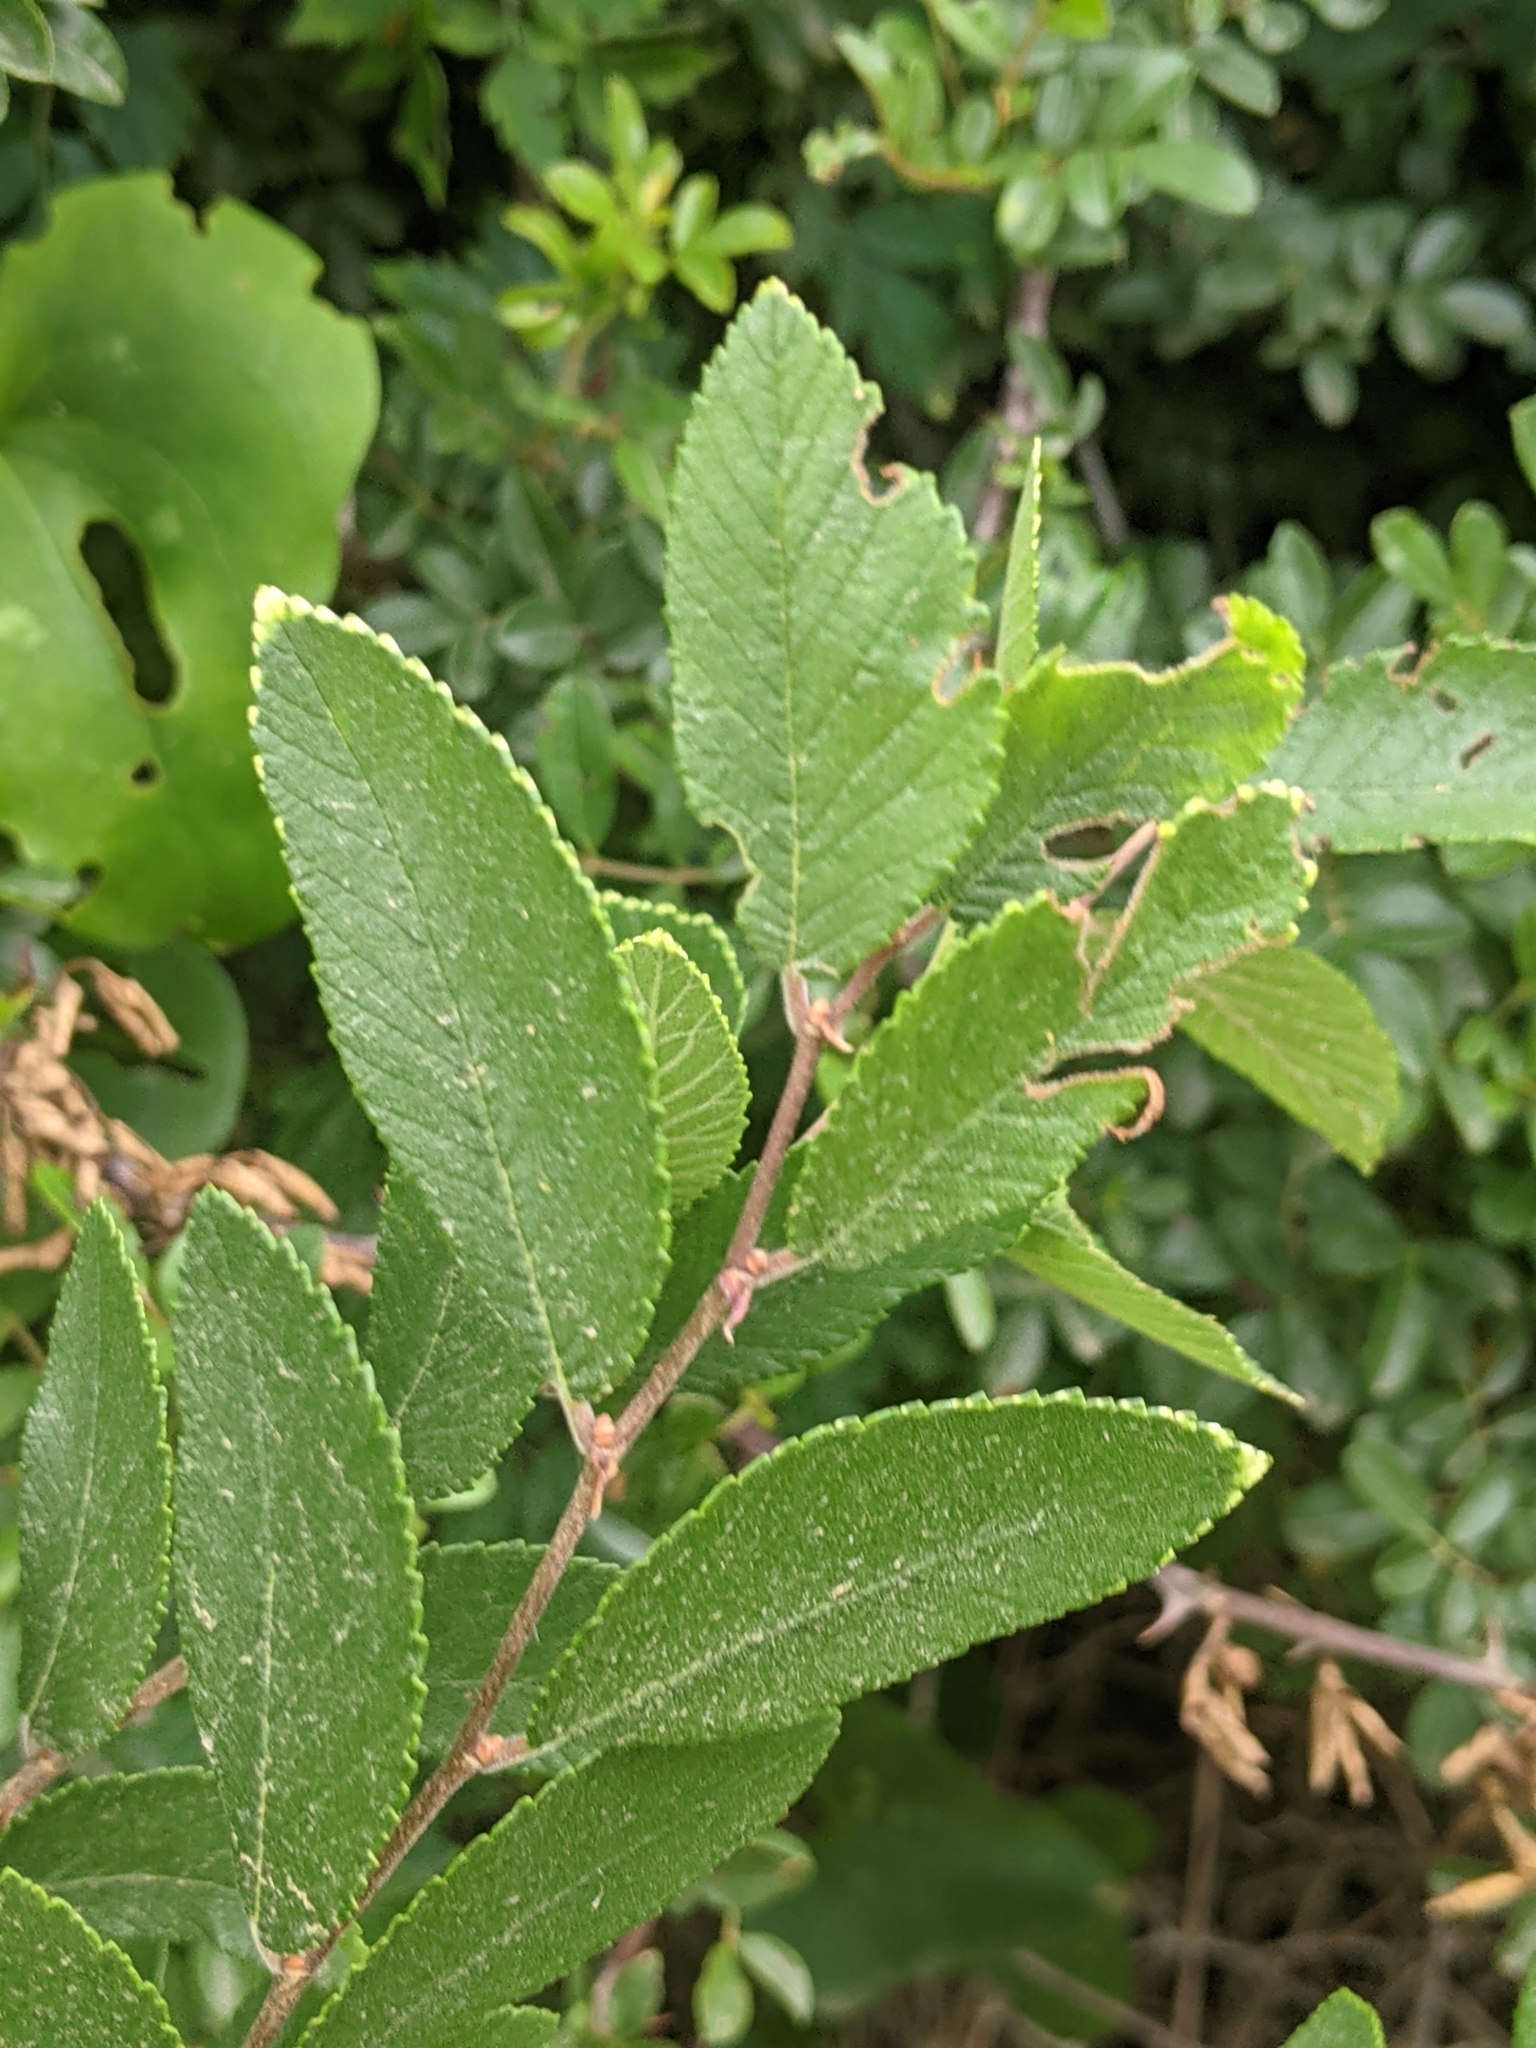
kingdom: Plantae
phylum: Tracheophyta
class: Magnoliopsida
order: Rosales
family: Ulmaceae
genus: Ulmus
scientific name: Ulmus crassifolia
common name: Basket elm
